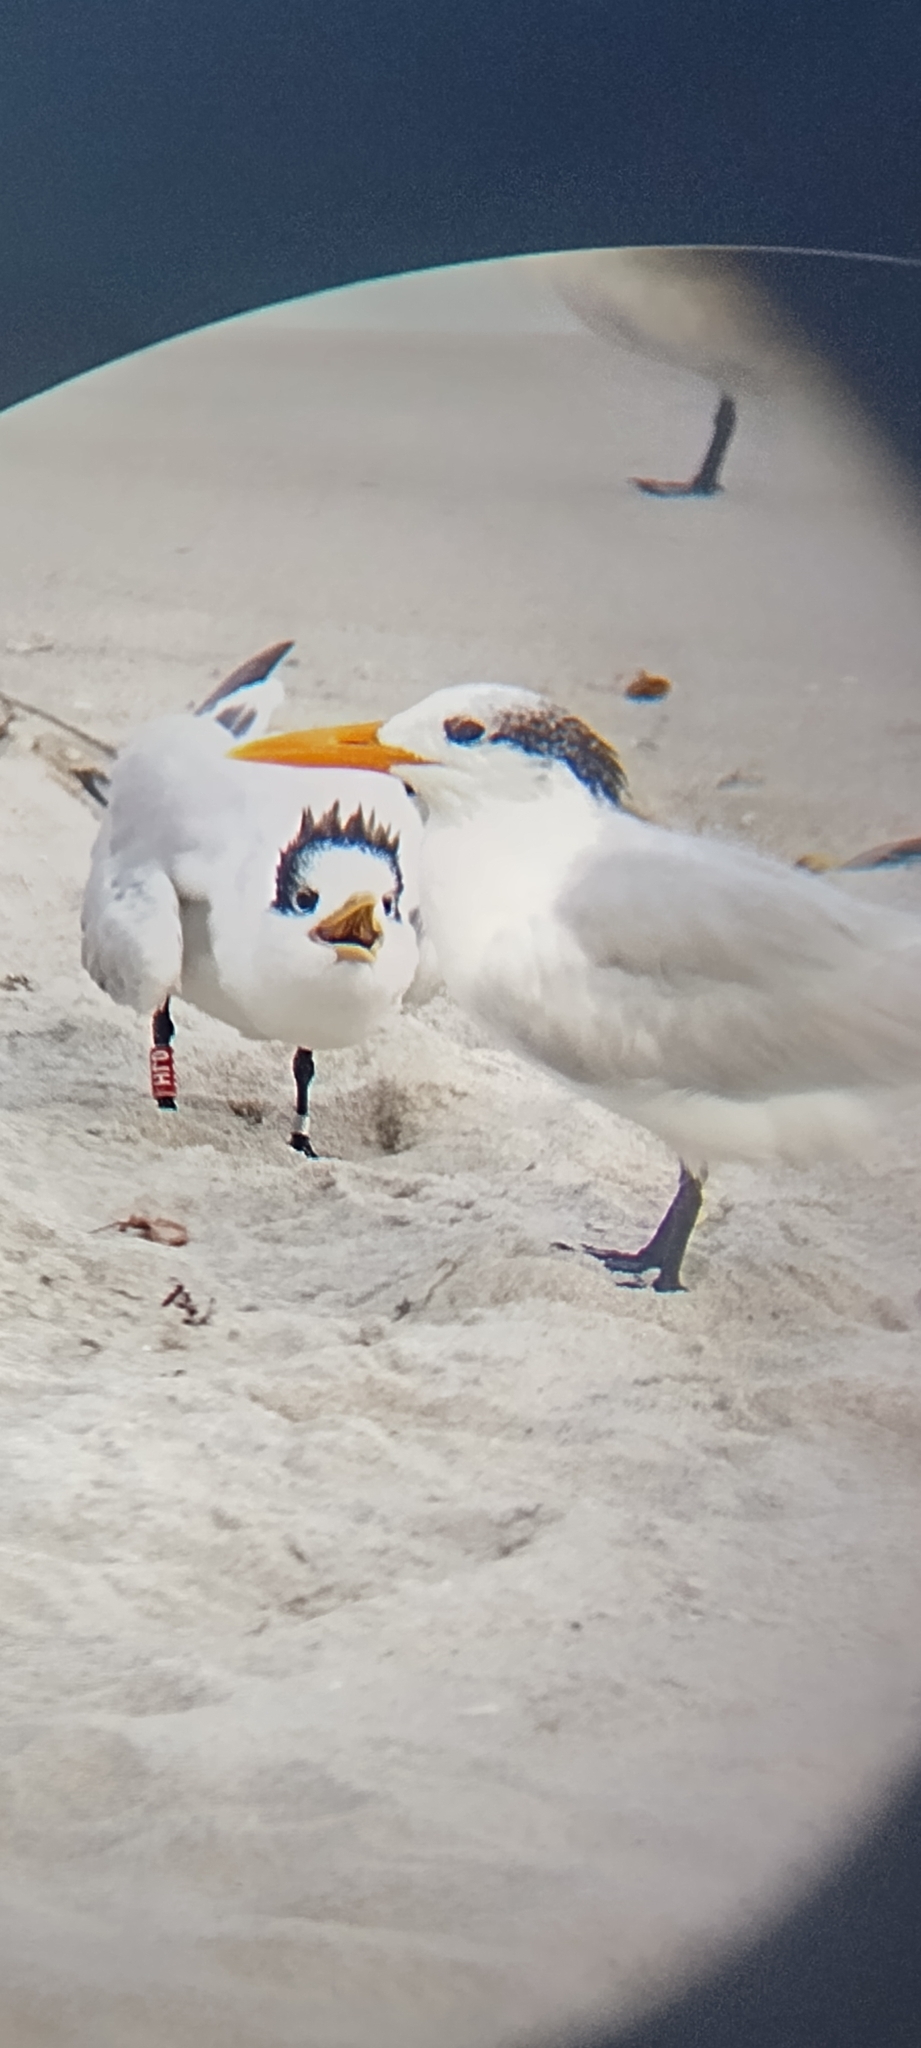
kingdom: Animalia
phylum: Chordata
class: Aves
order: Charadriiformes
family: Laridae
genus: Thalasseus
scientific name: Thalasseus maximus
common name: Royal tern
